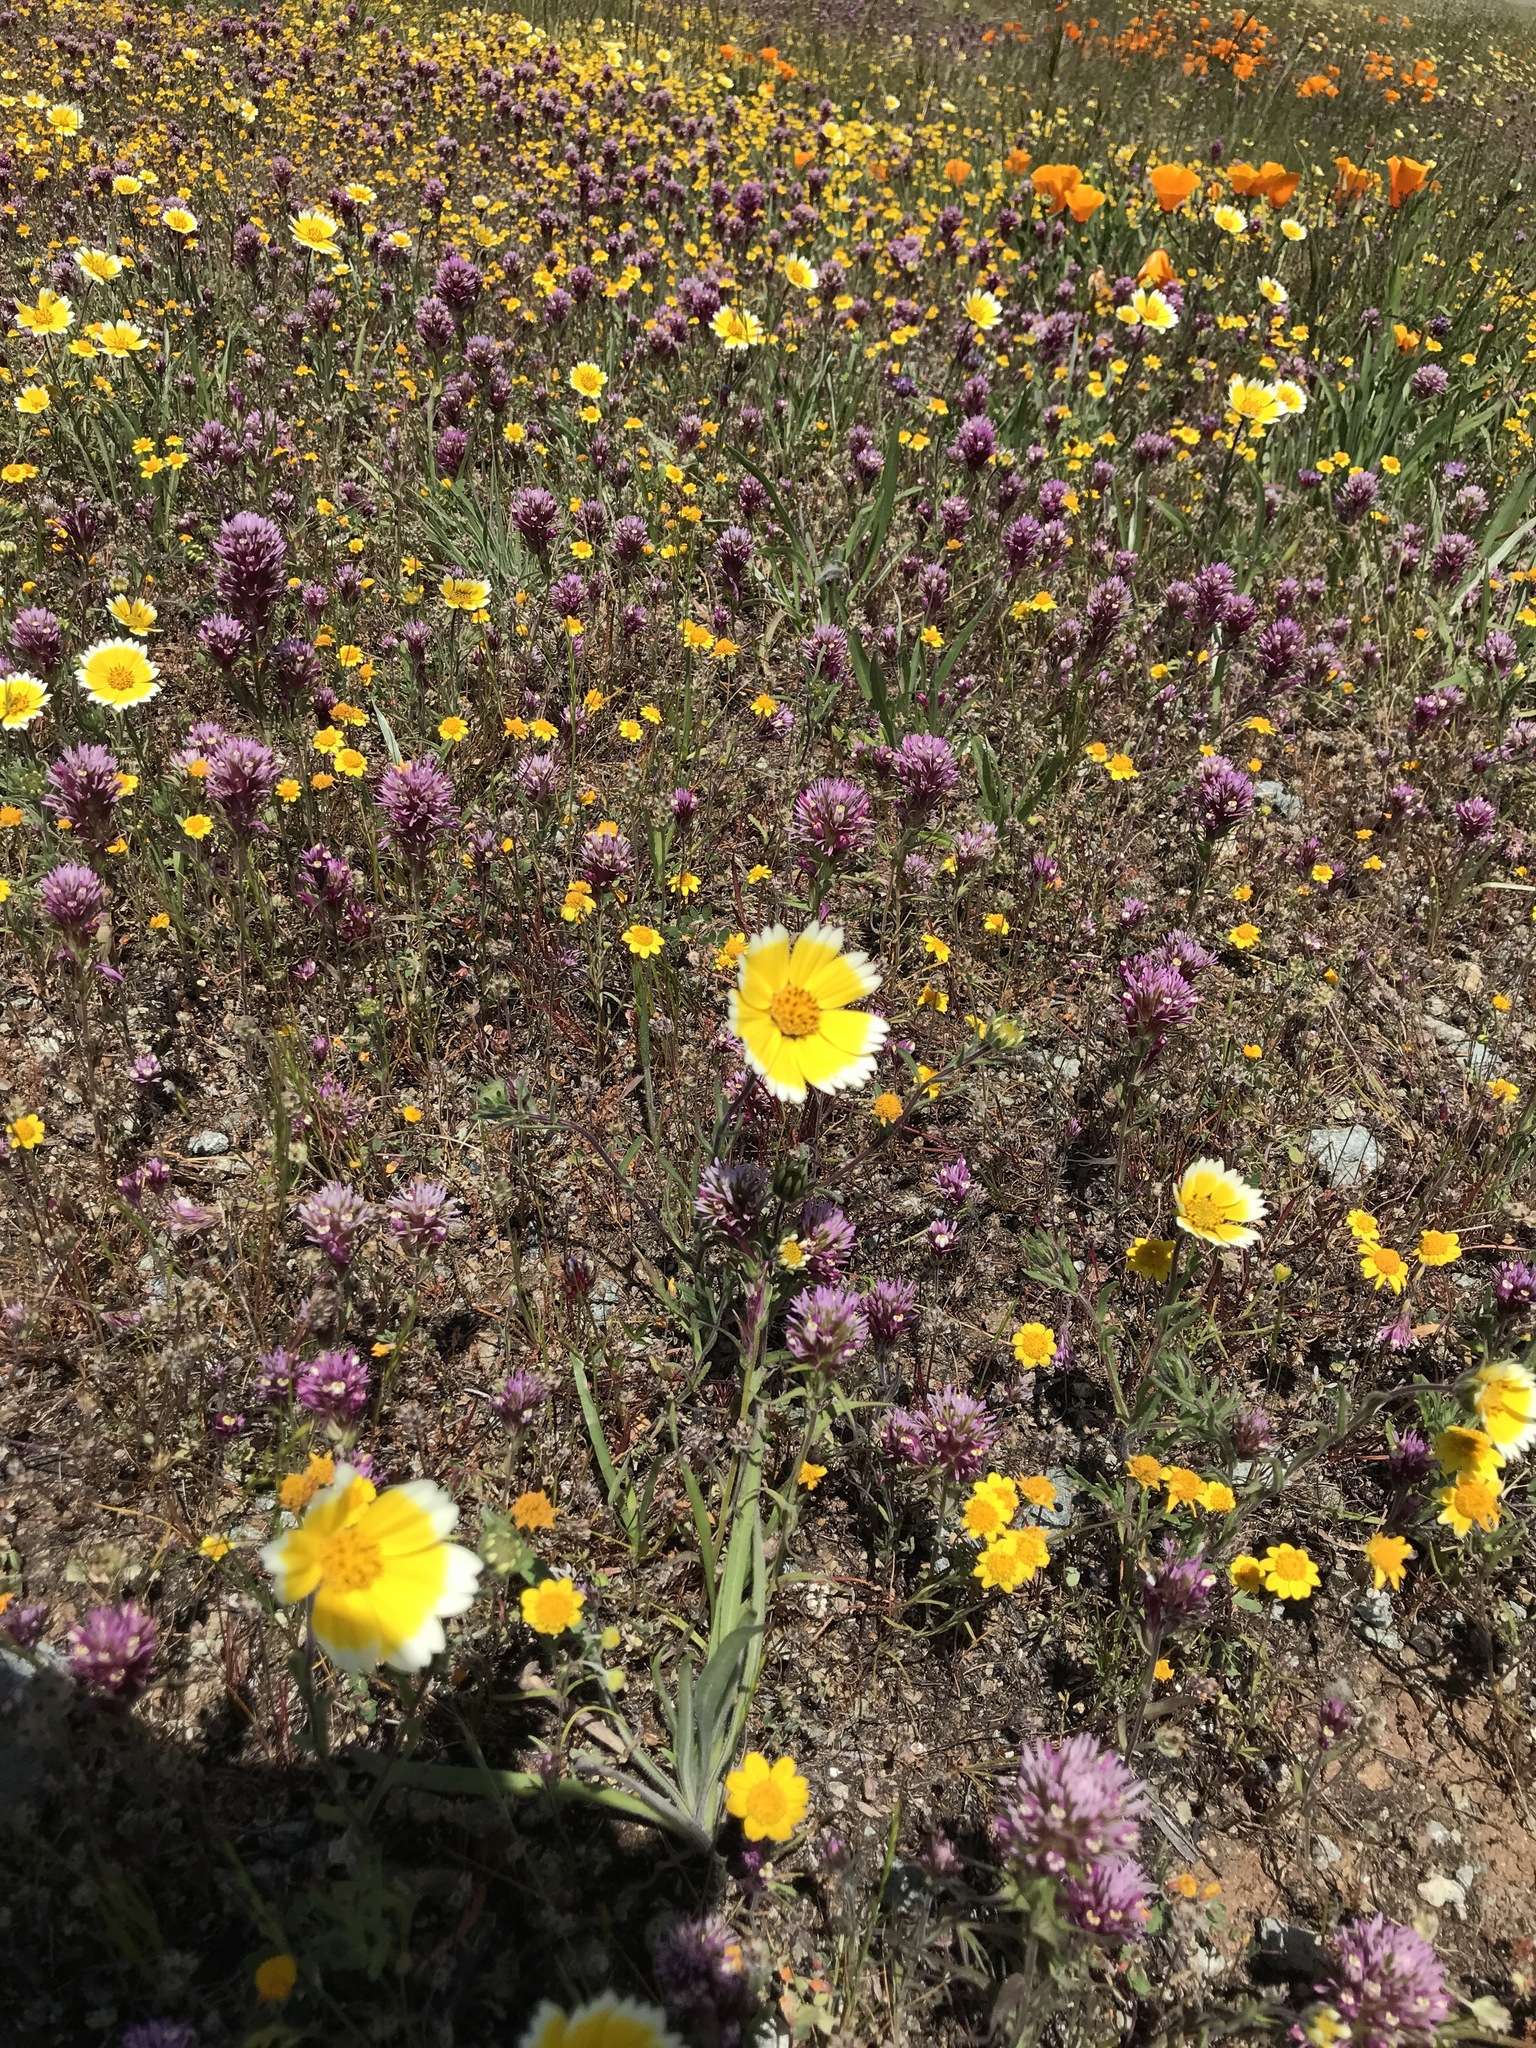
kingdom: Plantae
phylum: Tracheophyta
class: Magnoliopsida
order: Asterales
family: Asteraceae
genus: Layia
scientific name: Layia platyglossa
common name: Tidy-tips
